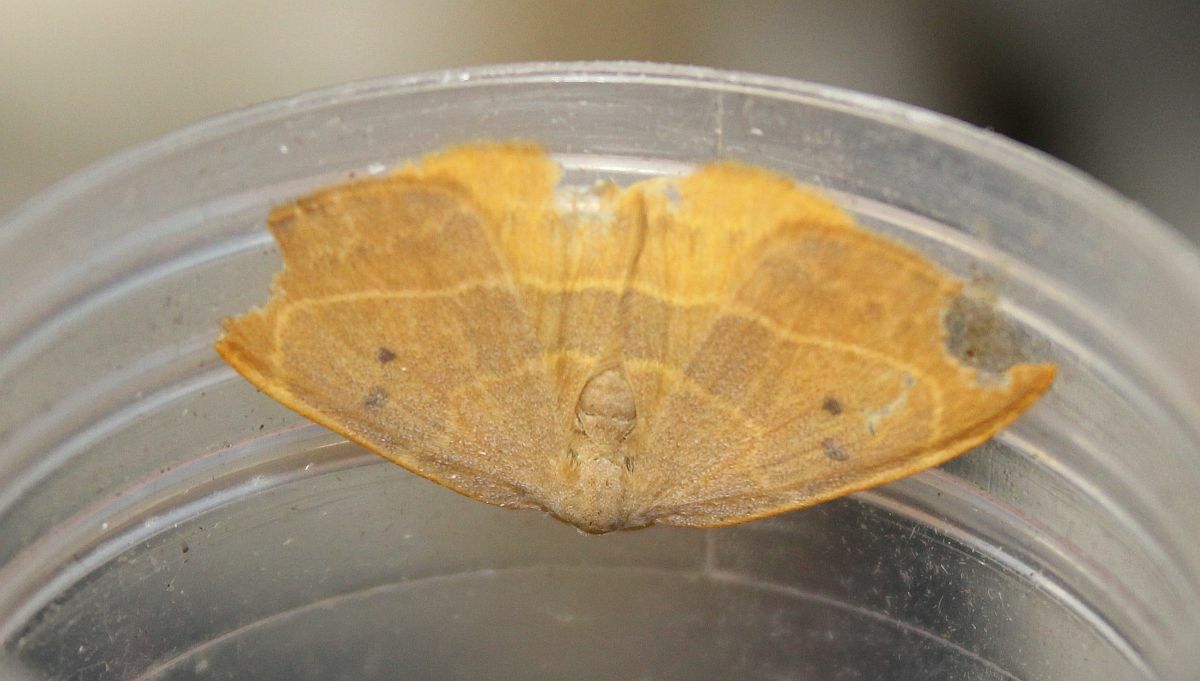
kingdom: Animalia
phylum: Arthropoda
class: Insecta
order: Lepidoptera
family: Drepanidae
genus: Watsonalla
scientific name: Watsonalla binaria
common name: Oak hook-tip
